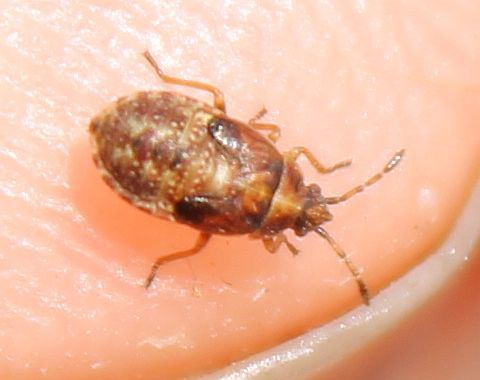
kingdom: Animalia
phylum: Arthropoda
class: Insecta
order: Hemiptera
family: Lygaeidae
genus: Kleidocerys
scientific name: Kleidocerys resedae
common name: Birch catkin bug
